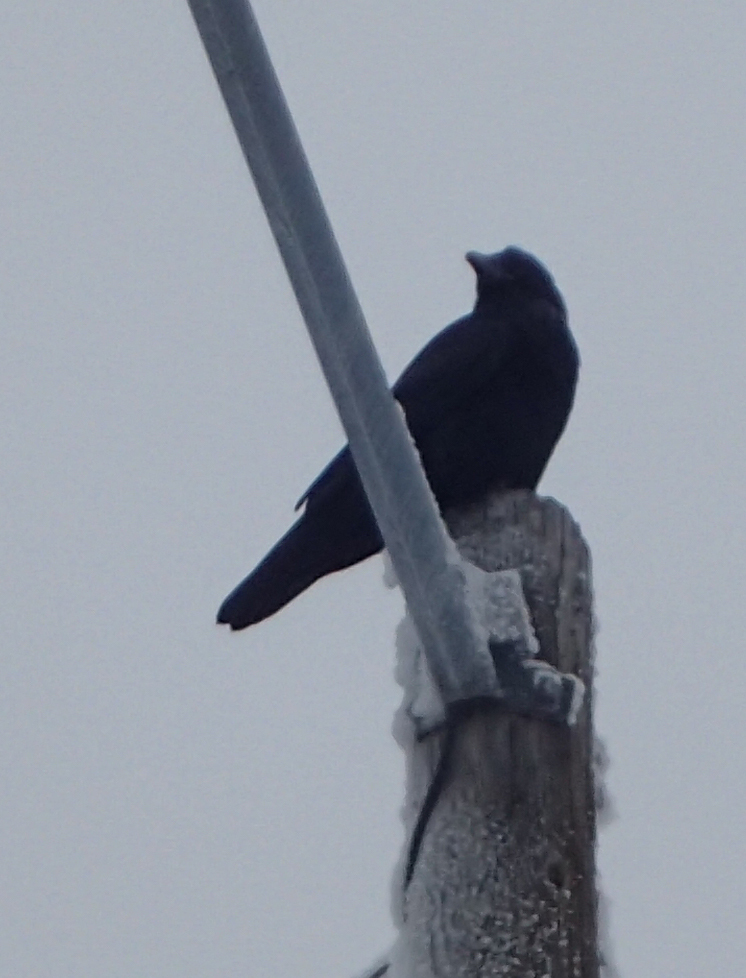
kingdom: Animalia
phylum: Chordata
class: Aves
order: Passeriformes
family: Corvidae
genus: Corvus
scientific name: Corvus corax
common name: Common raven
